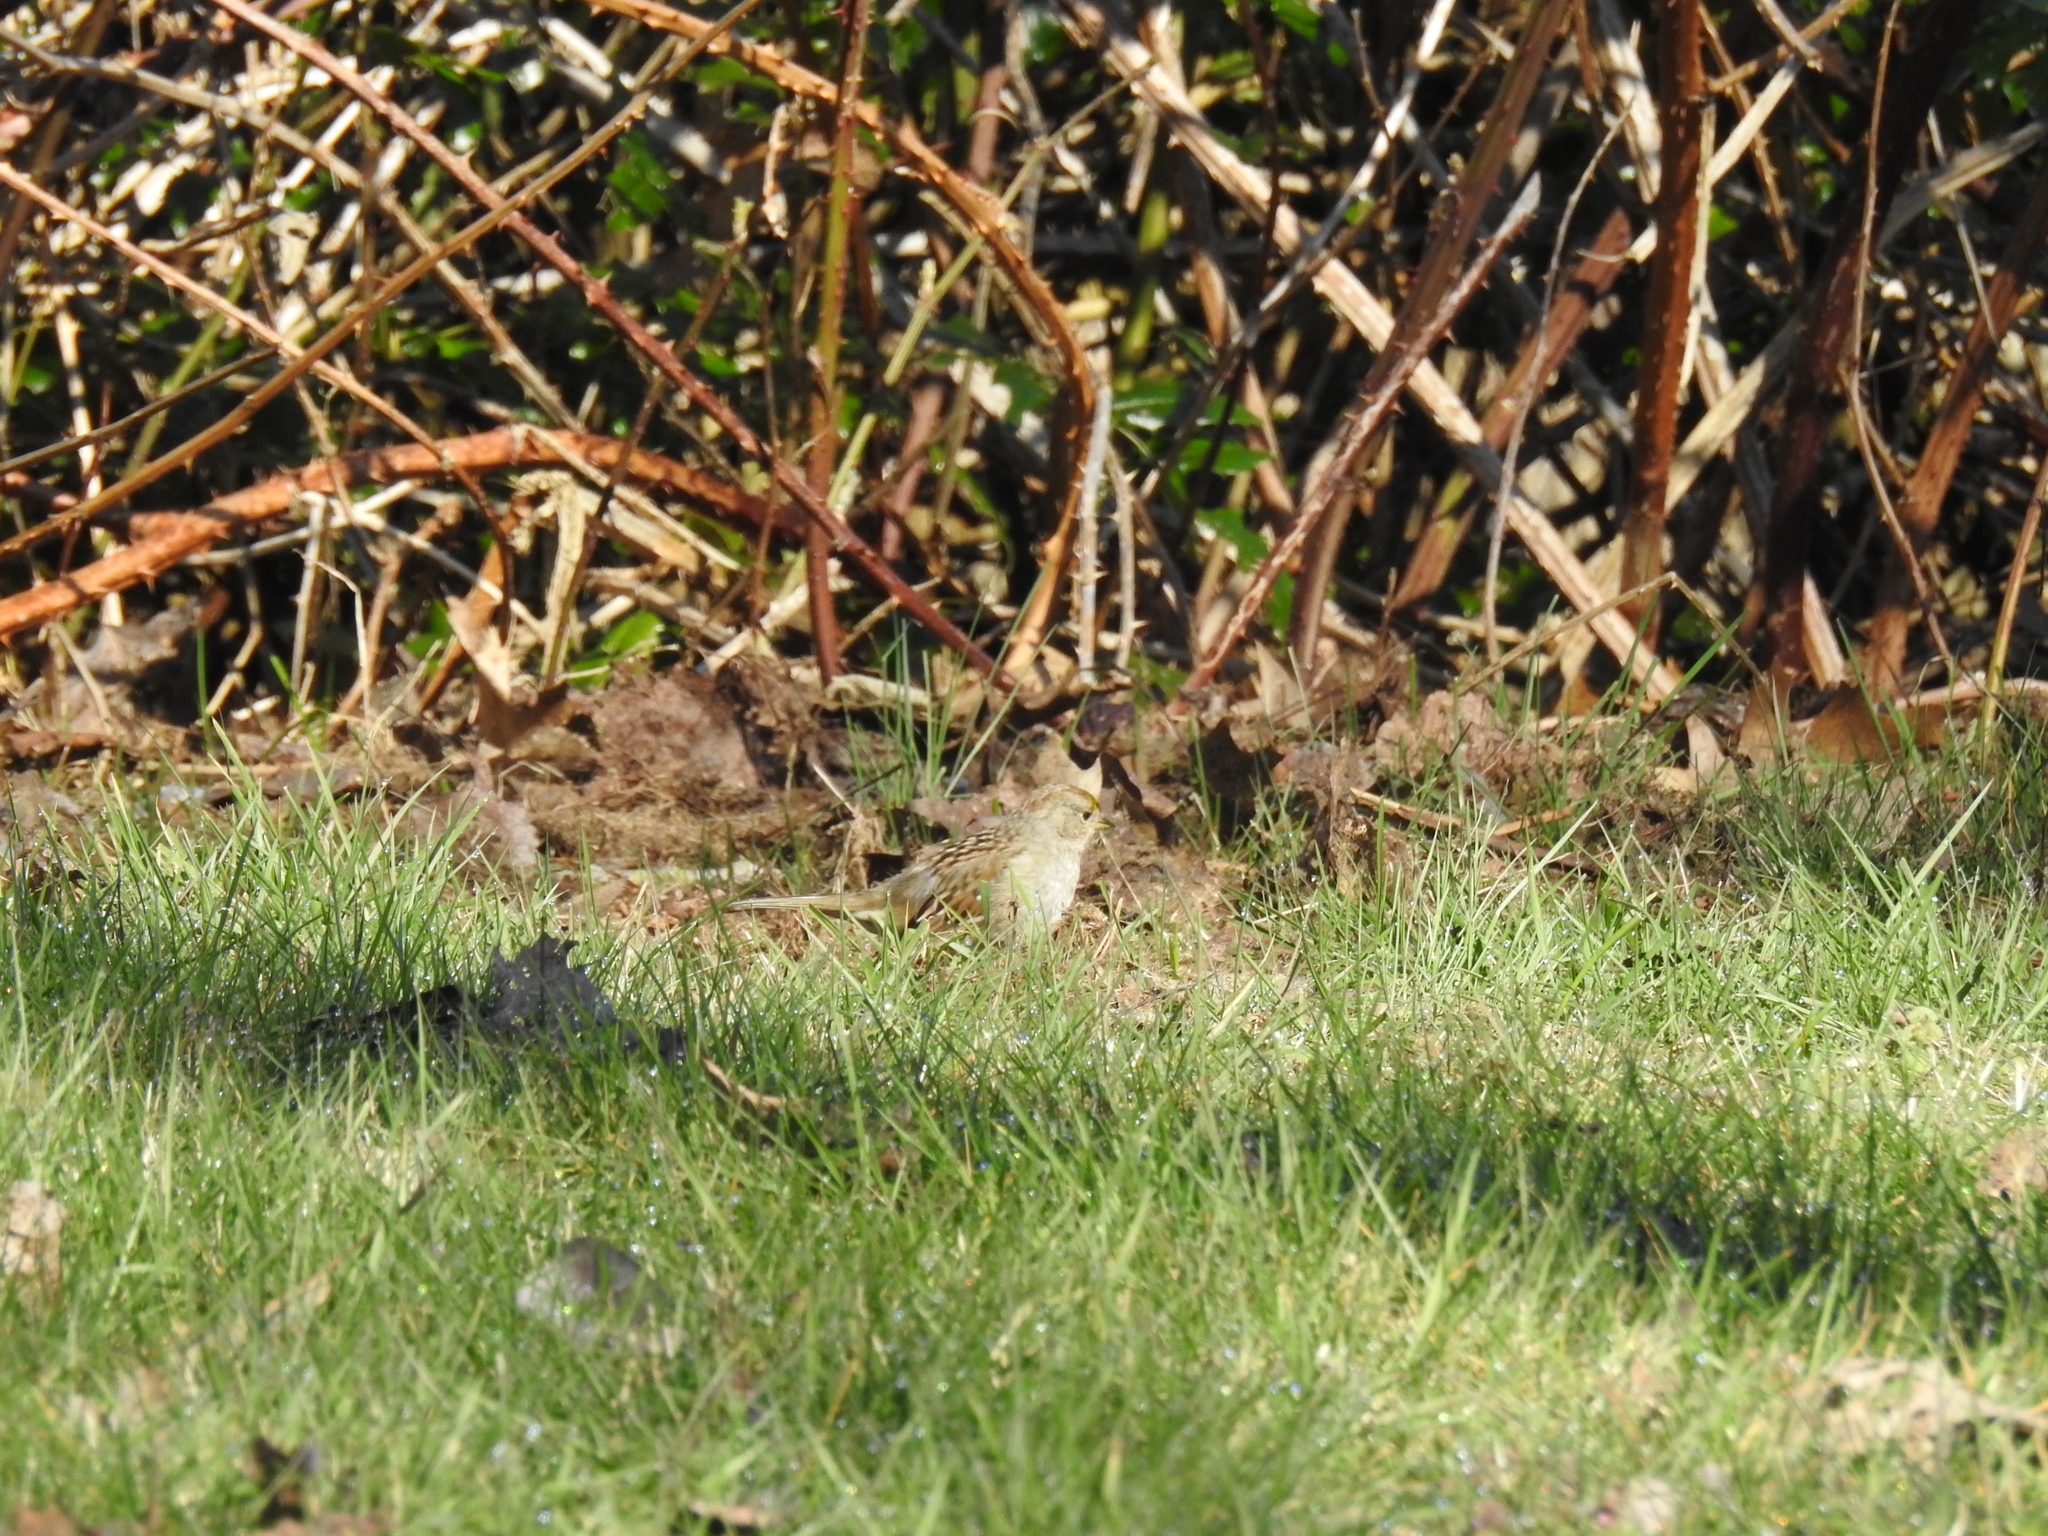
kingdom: Animalia
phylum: Chordata
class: Aves
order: Passeriformes
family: Passerellidae
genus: Zonotrichia
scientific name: Zonotrichia atricapilla
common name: Golden-crowned sparrow
